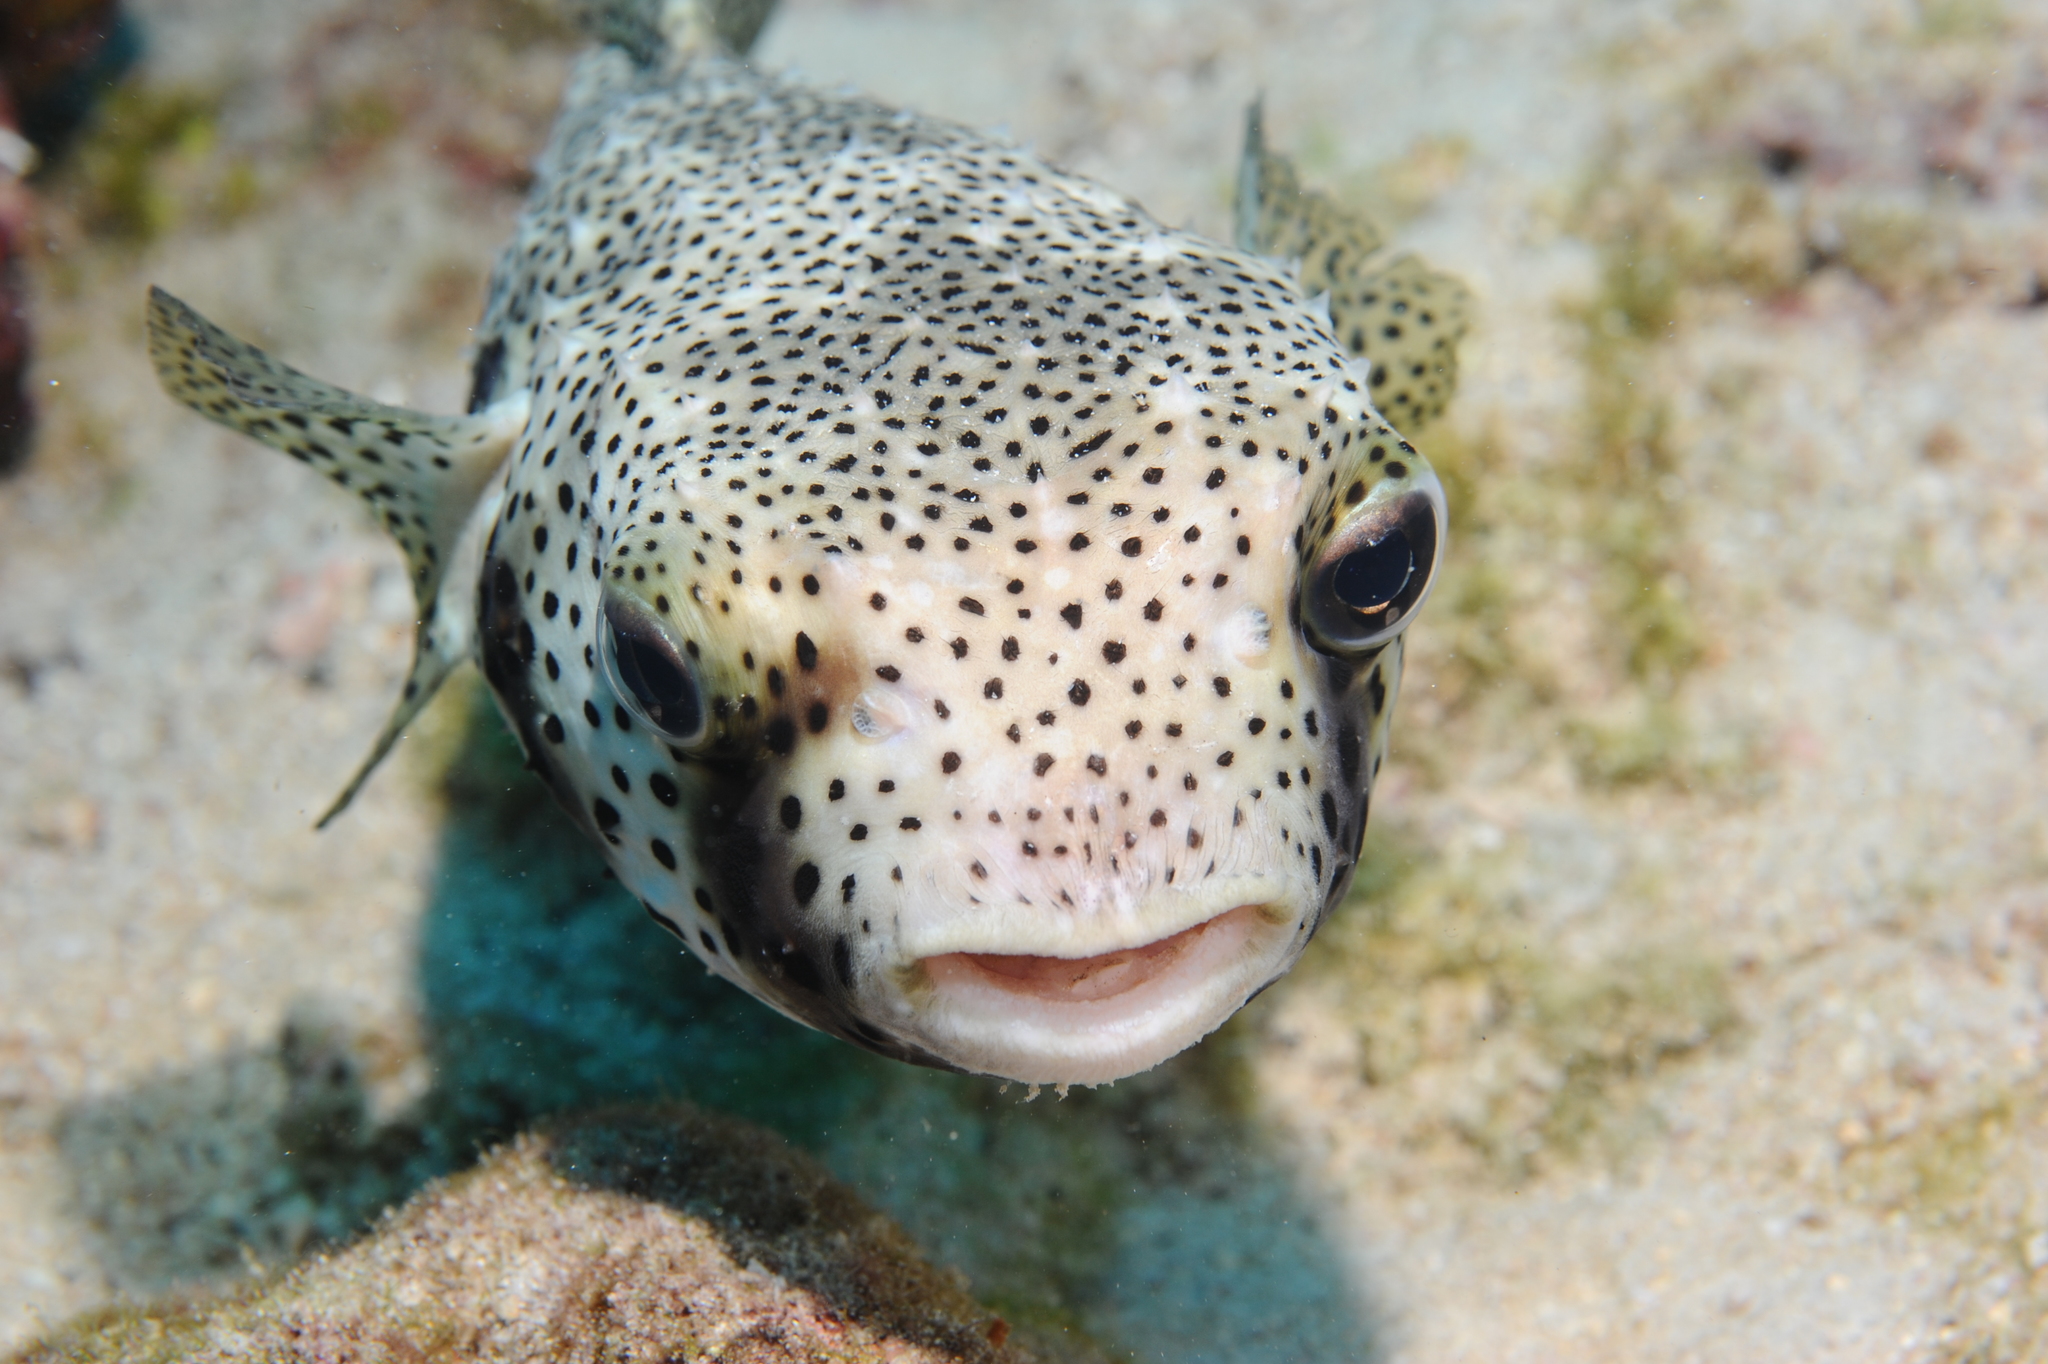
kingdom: Animalia
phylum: Chordata
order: Tetraodontiformes
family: Diodontidae
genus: Chilomycterus
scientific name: Chilomycterus reticulatus
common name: Spotfin burrfish
